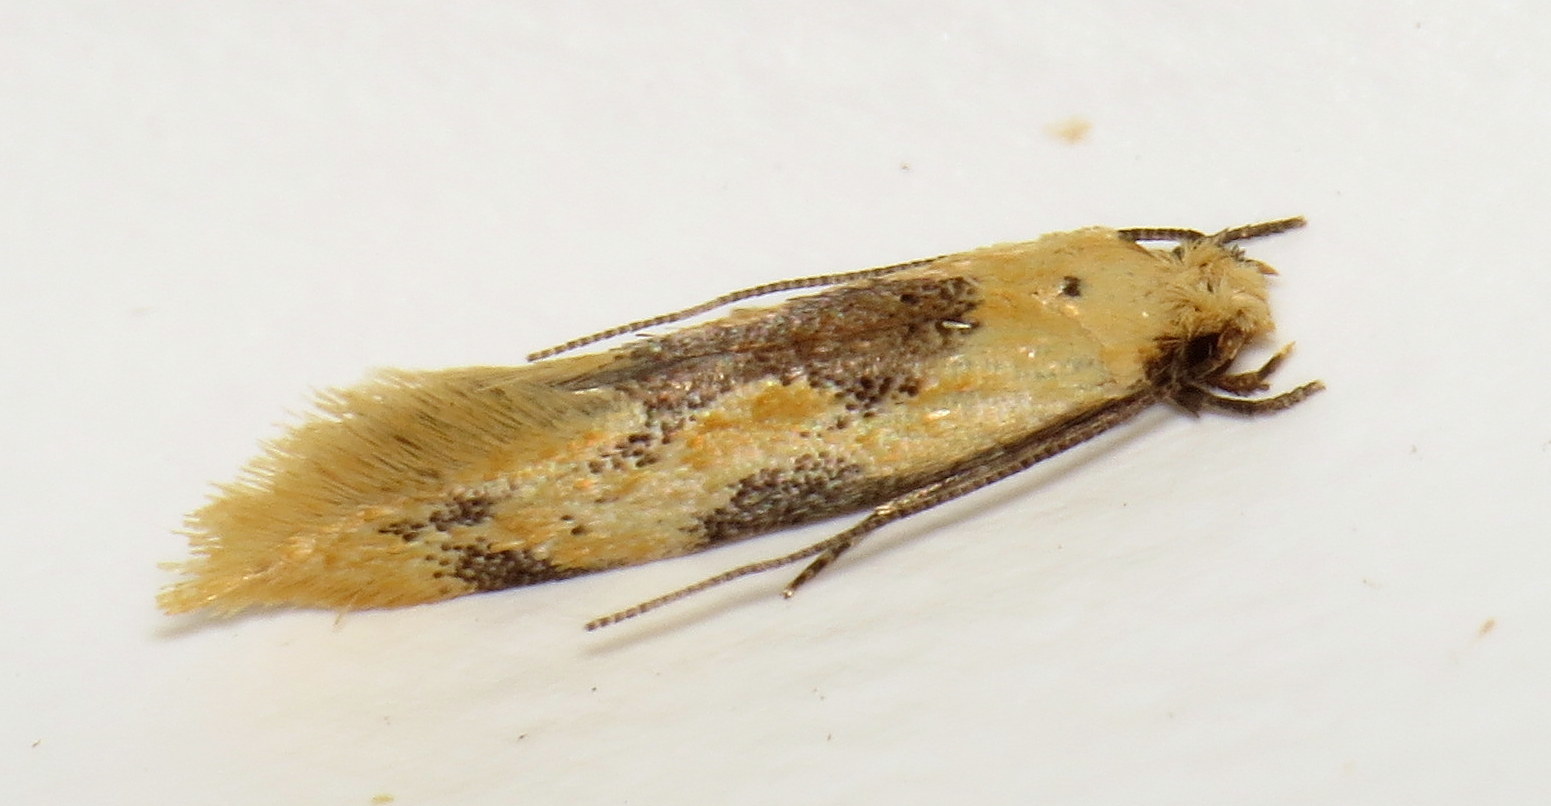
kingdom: Animalia
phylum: Arthropoda
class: Insecta
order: Lepidoptera
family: Meessiidae
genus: Hybroma
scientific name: Hybroma servulella
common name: Yellow wave moth
